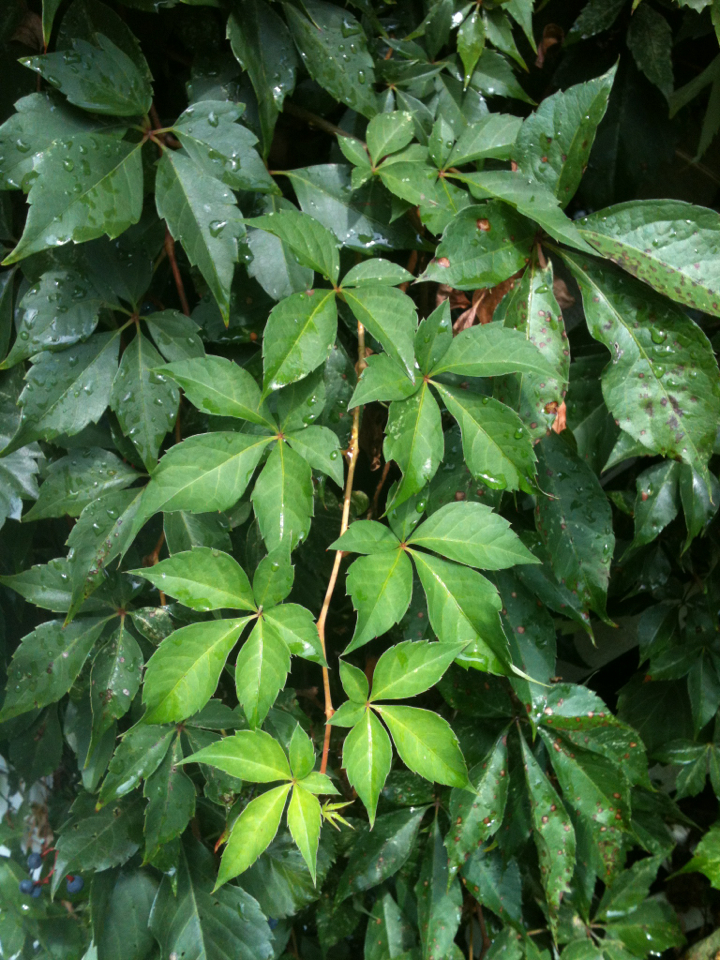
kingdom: Plantae
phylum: Tracheophyta
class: Magnoliopsida
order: Vitales
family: Vitaceae
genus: Parthenocissus
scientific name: Parthenocissus quinquefolia
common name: Virginia-creeper
